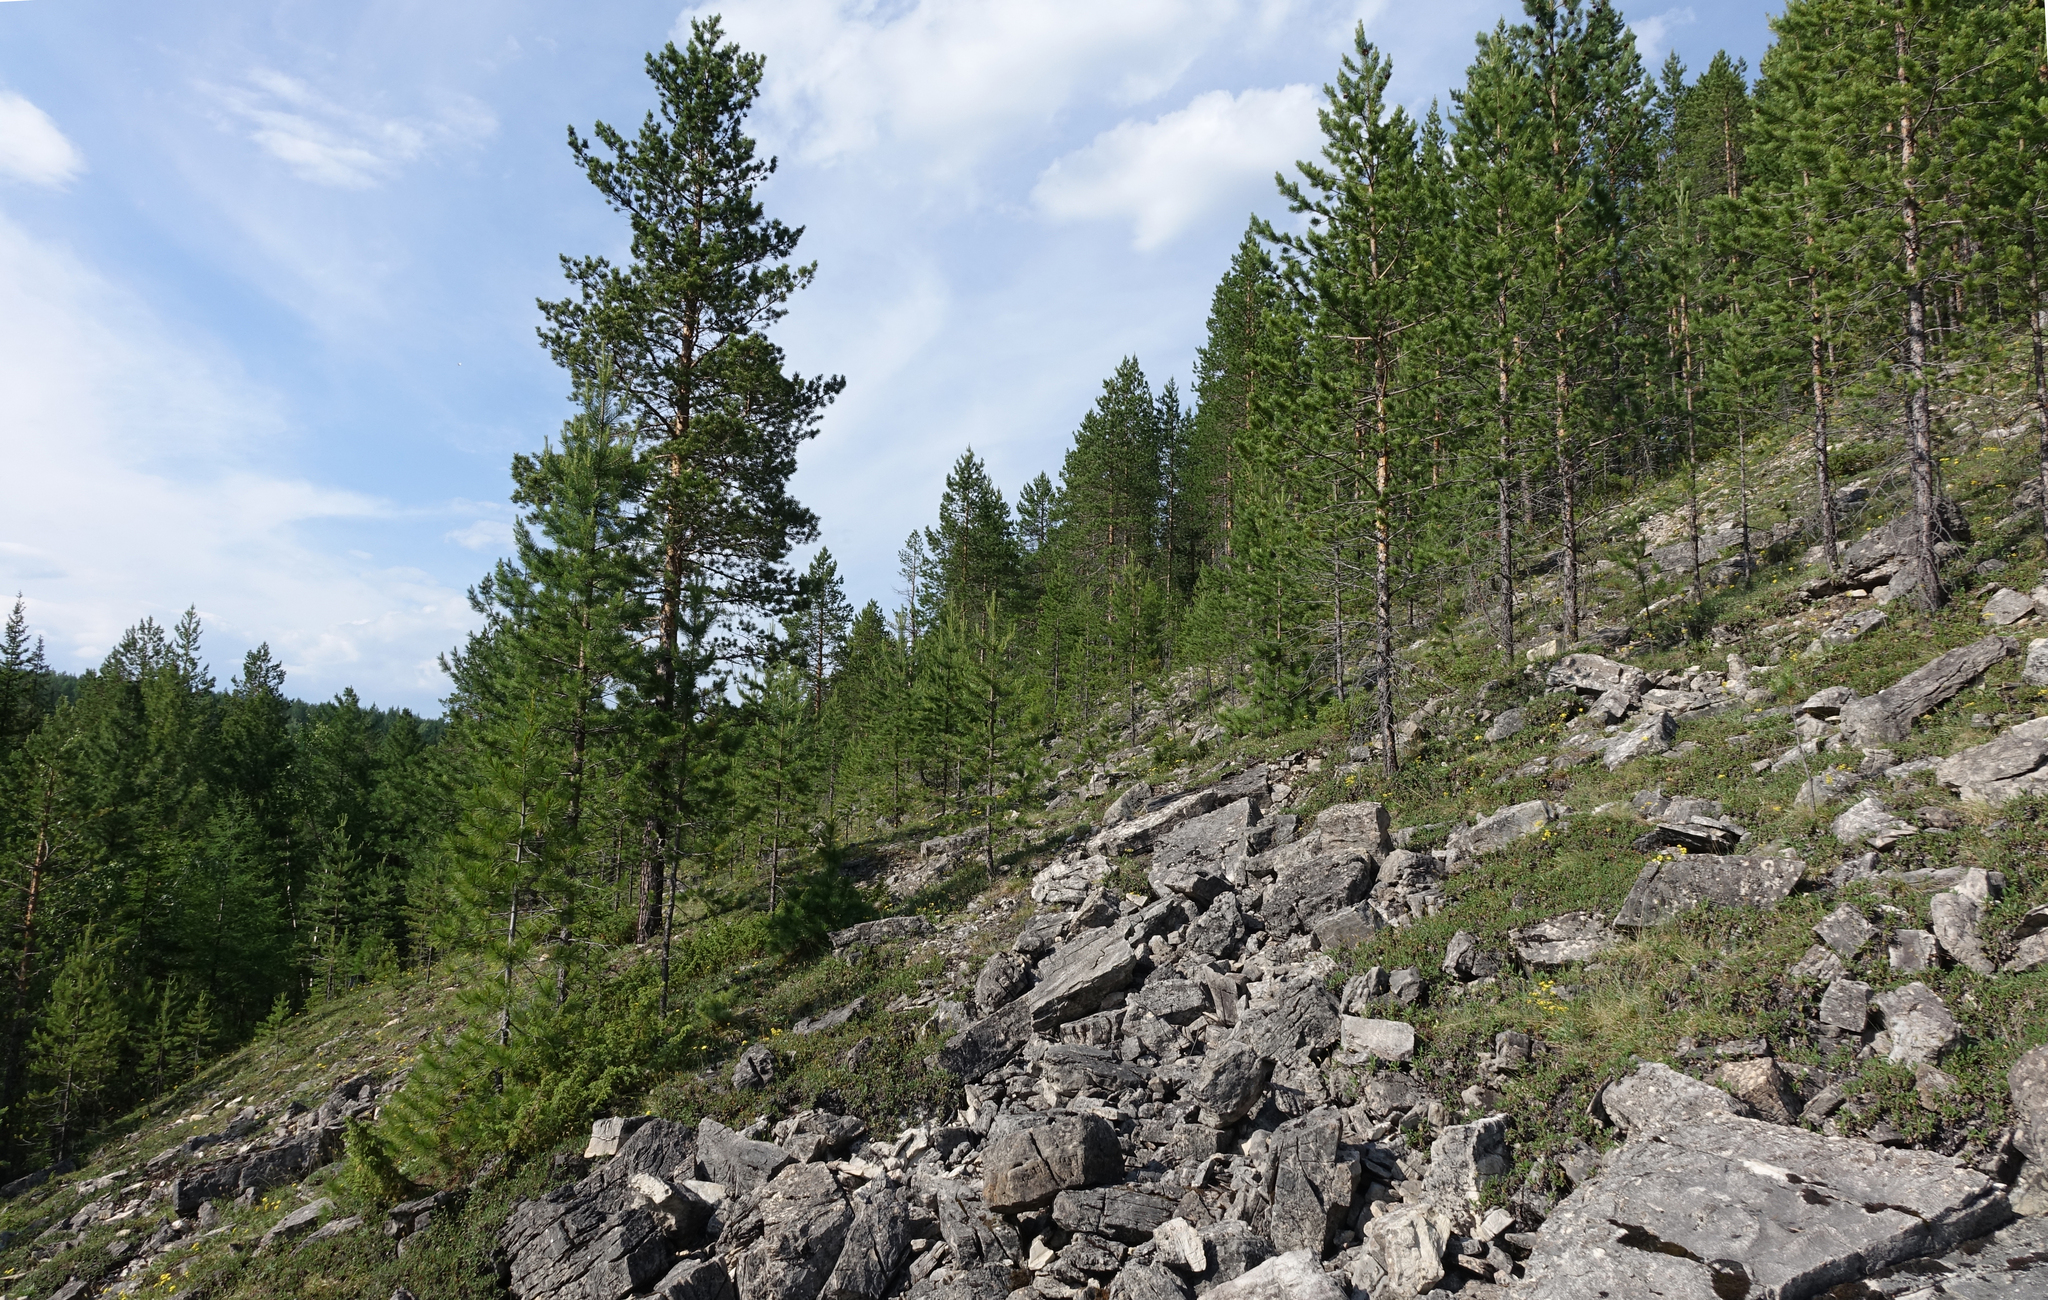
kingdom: Plantae
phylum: Tracheophyta
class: Pinopsida
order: Pinales
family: Cupressaceae
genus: Juniperus
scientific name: Juniperus communis
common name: Common juniper
